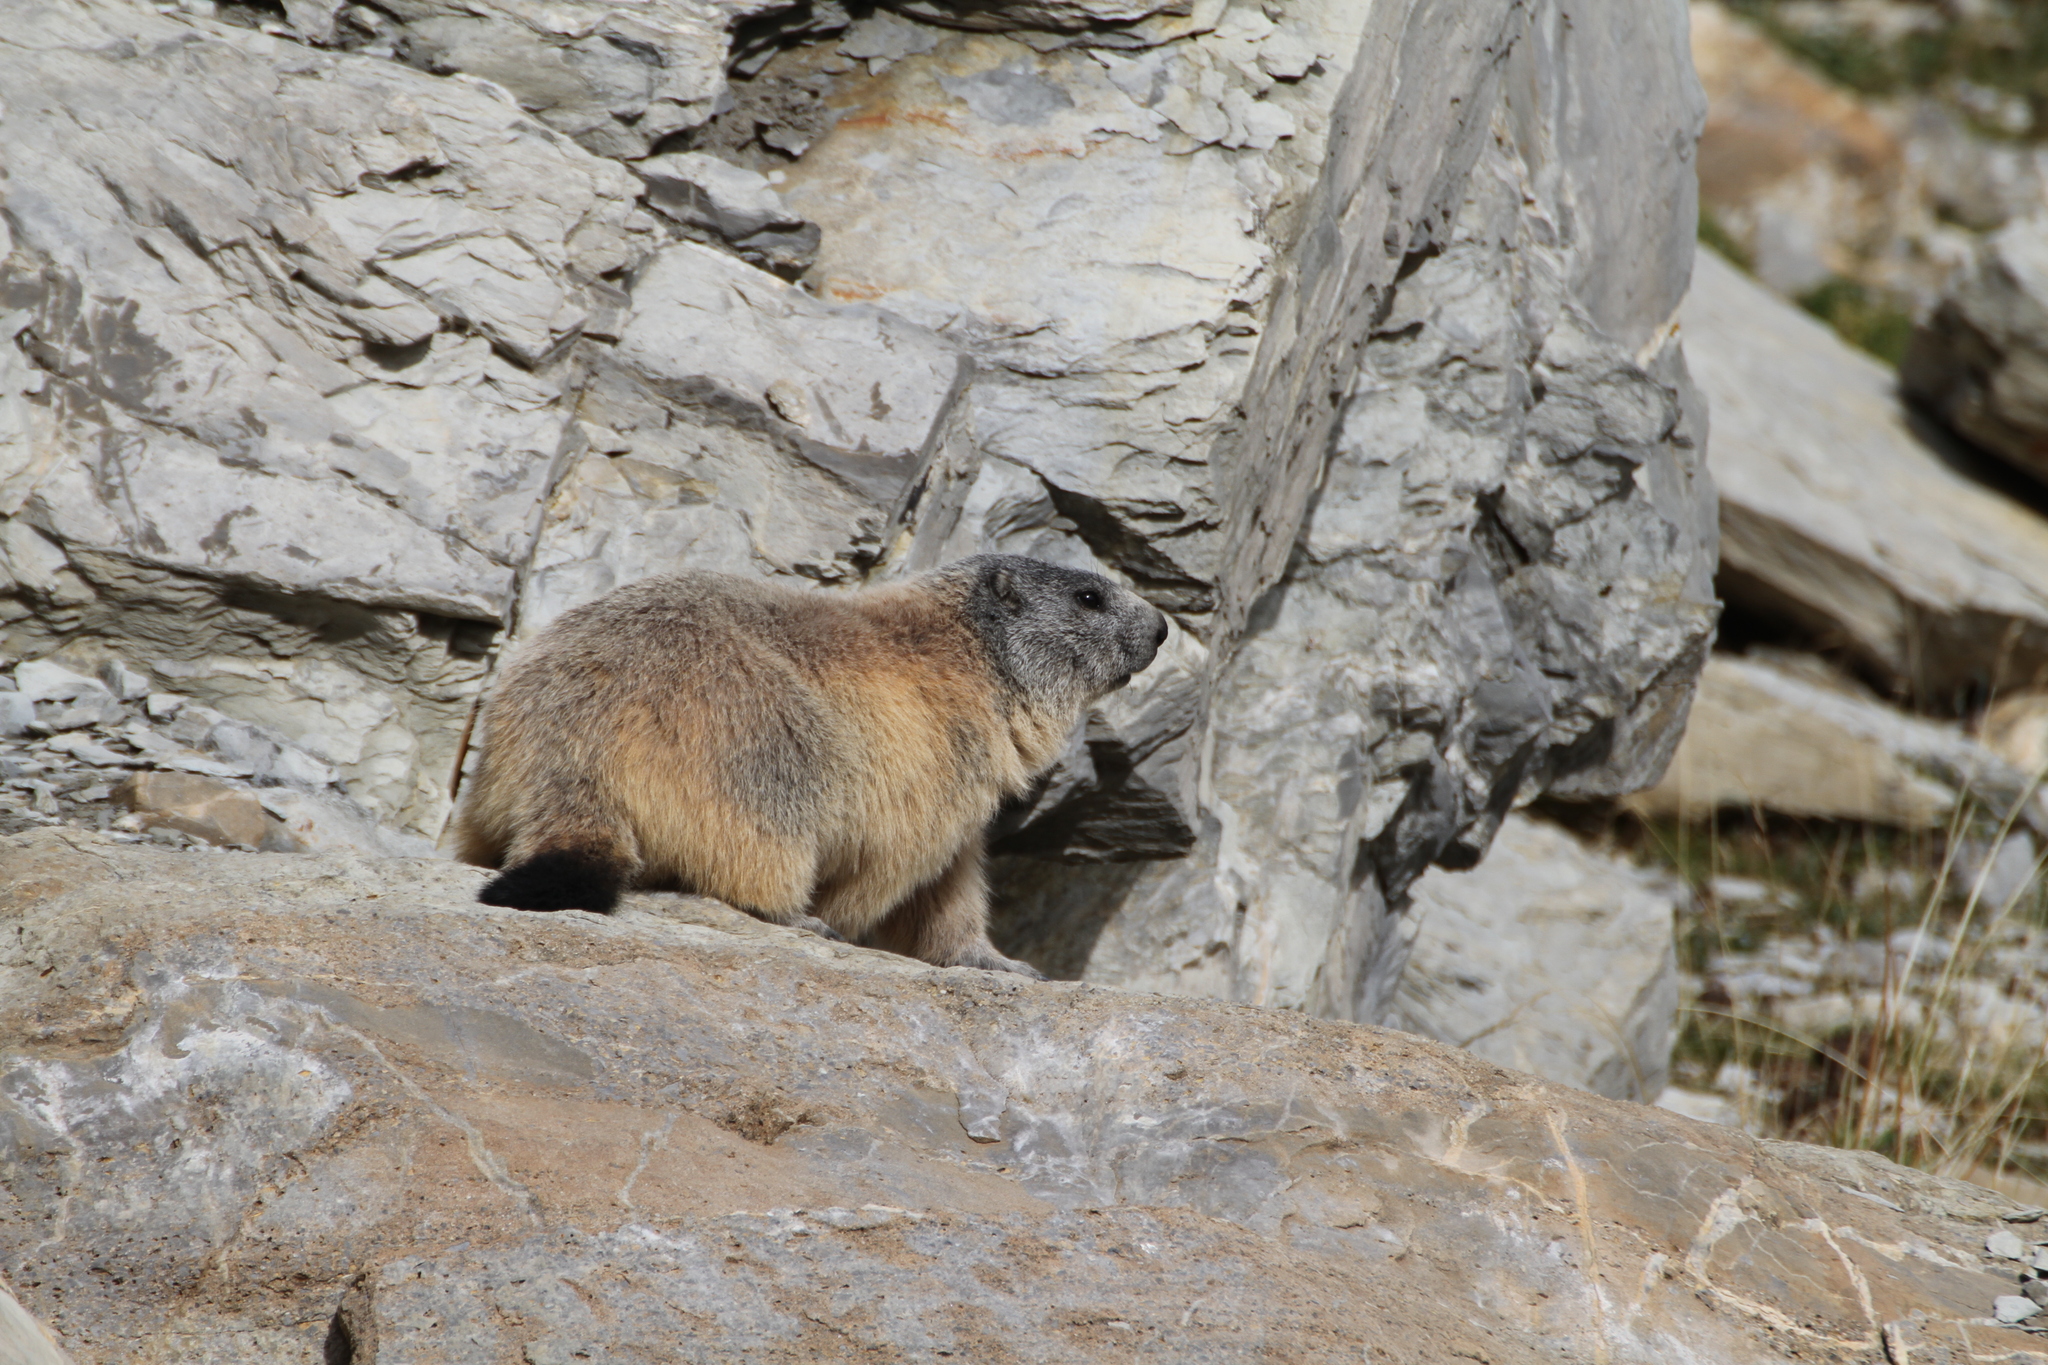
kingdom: Animalia
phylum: Chordata
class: Mammalia
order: Rodentia
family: Sciuridae
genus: Marmota
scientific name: Marmota marmota
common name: Alpine marmot
